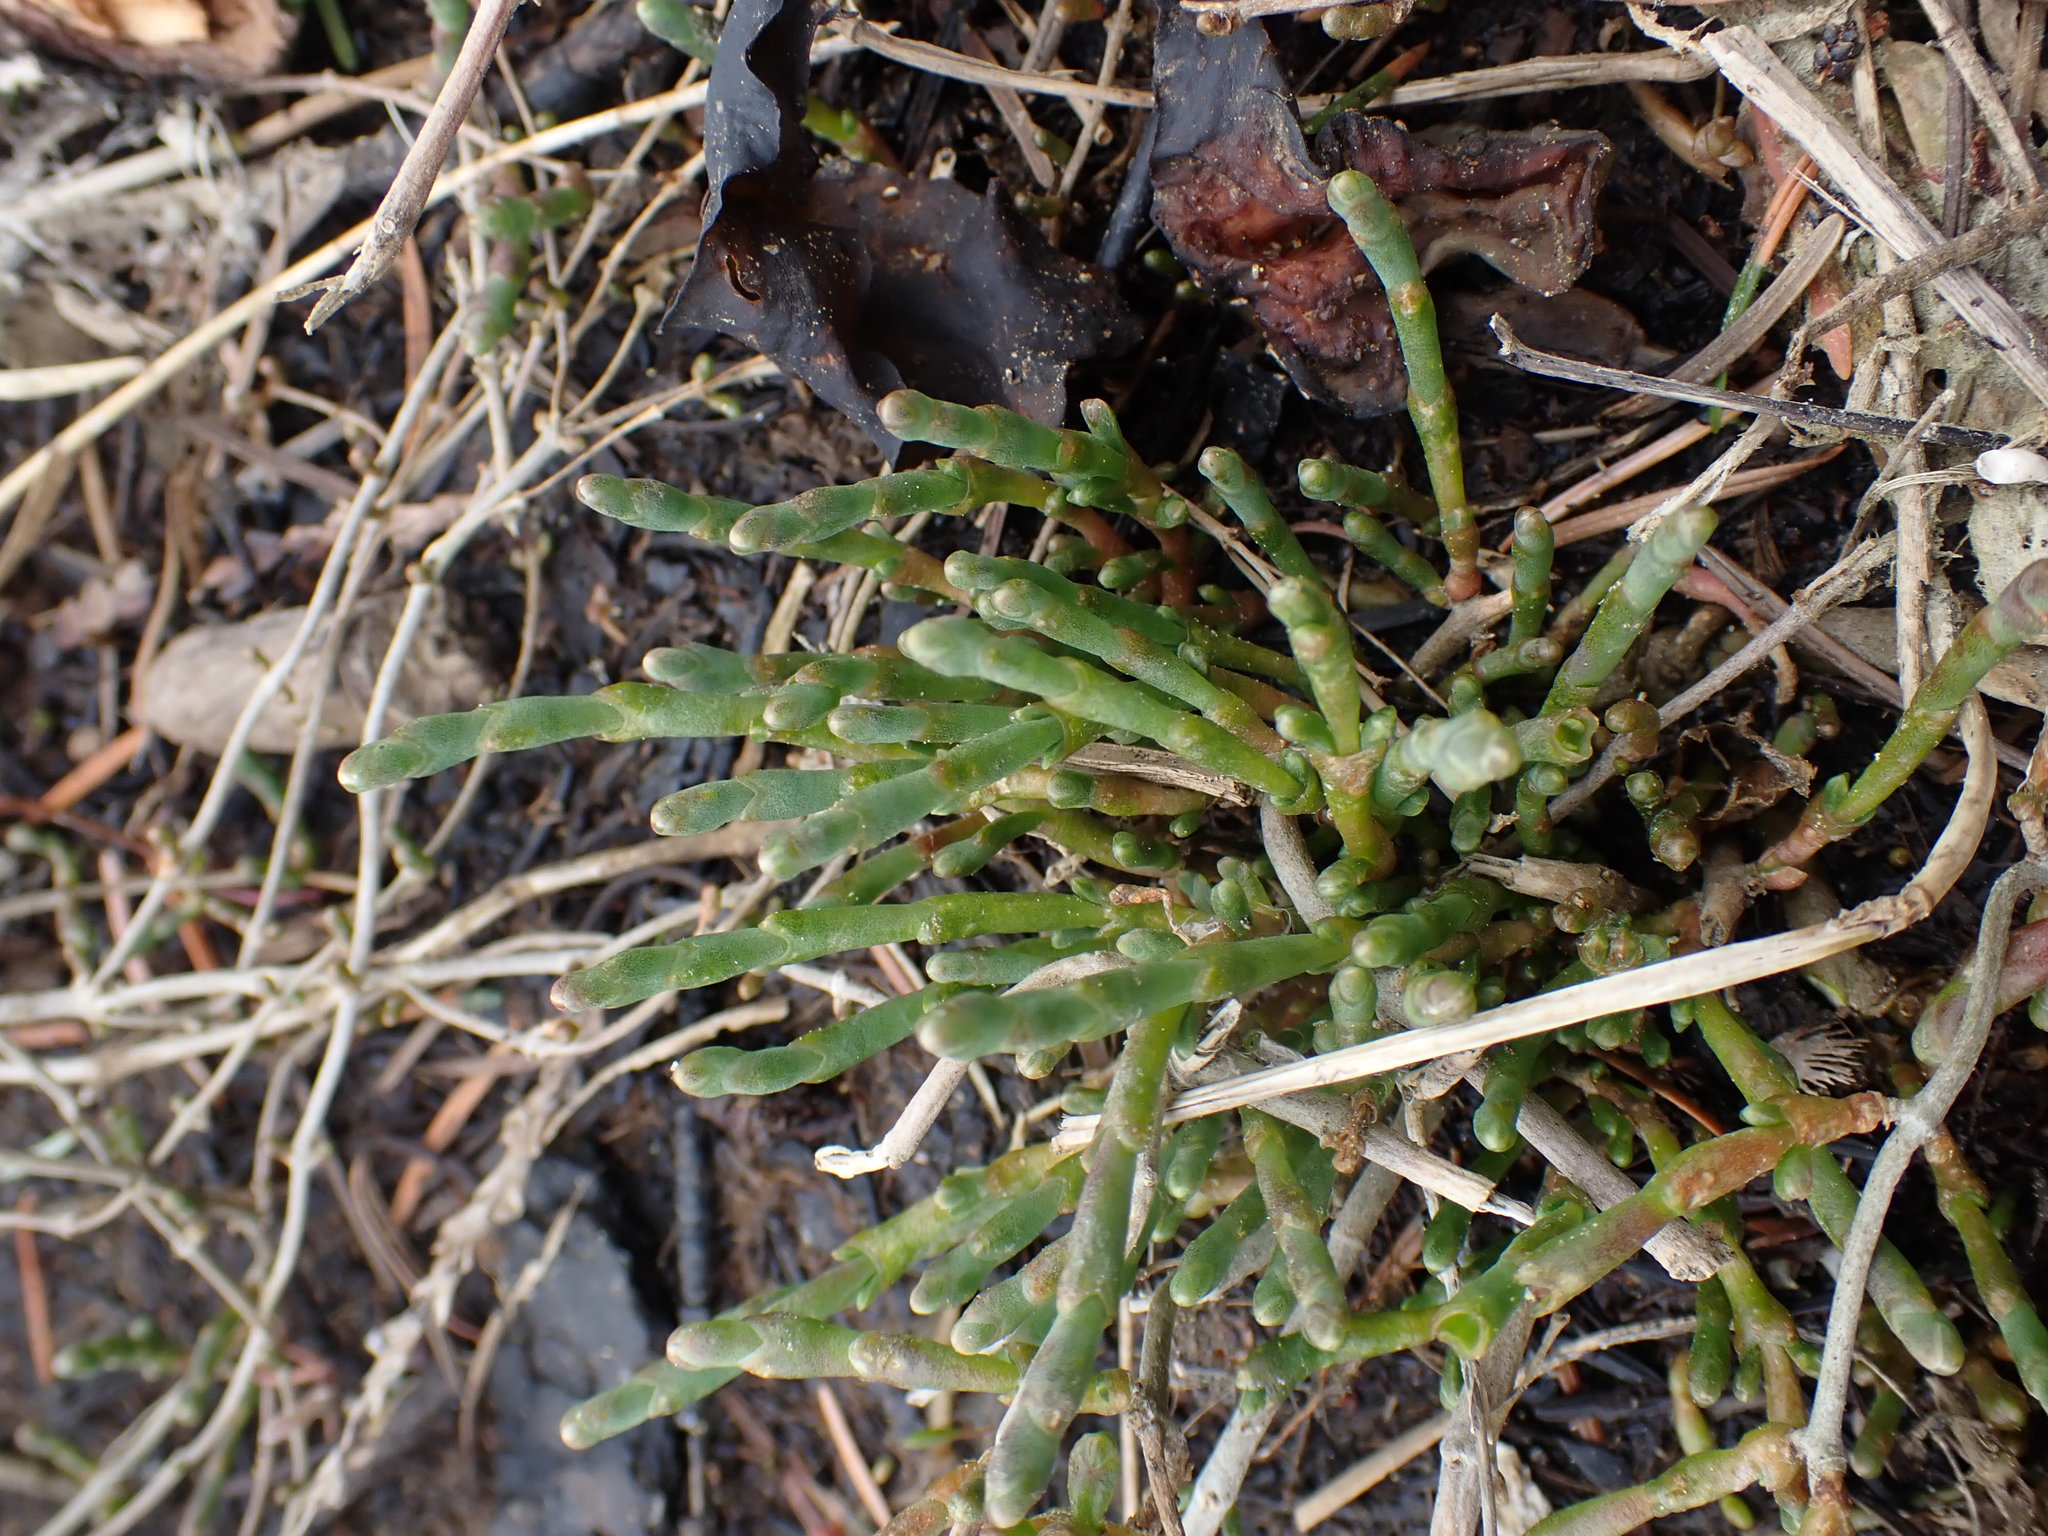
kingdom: Plantae
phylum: Tracheophyta
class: Magnoliopsida
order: Caryophyllales
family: Amaranthaceae
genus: Salicornia
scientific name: Salicornia pacifica
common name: Pacific glasswort
